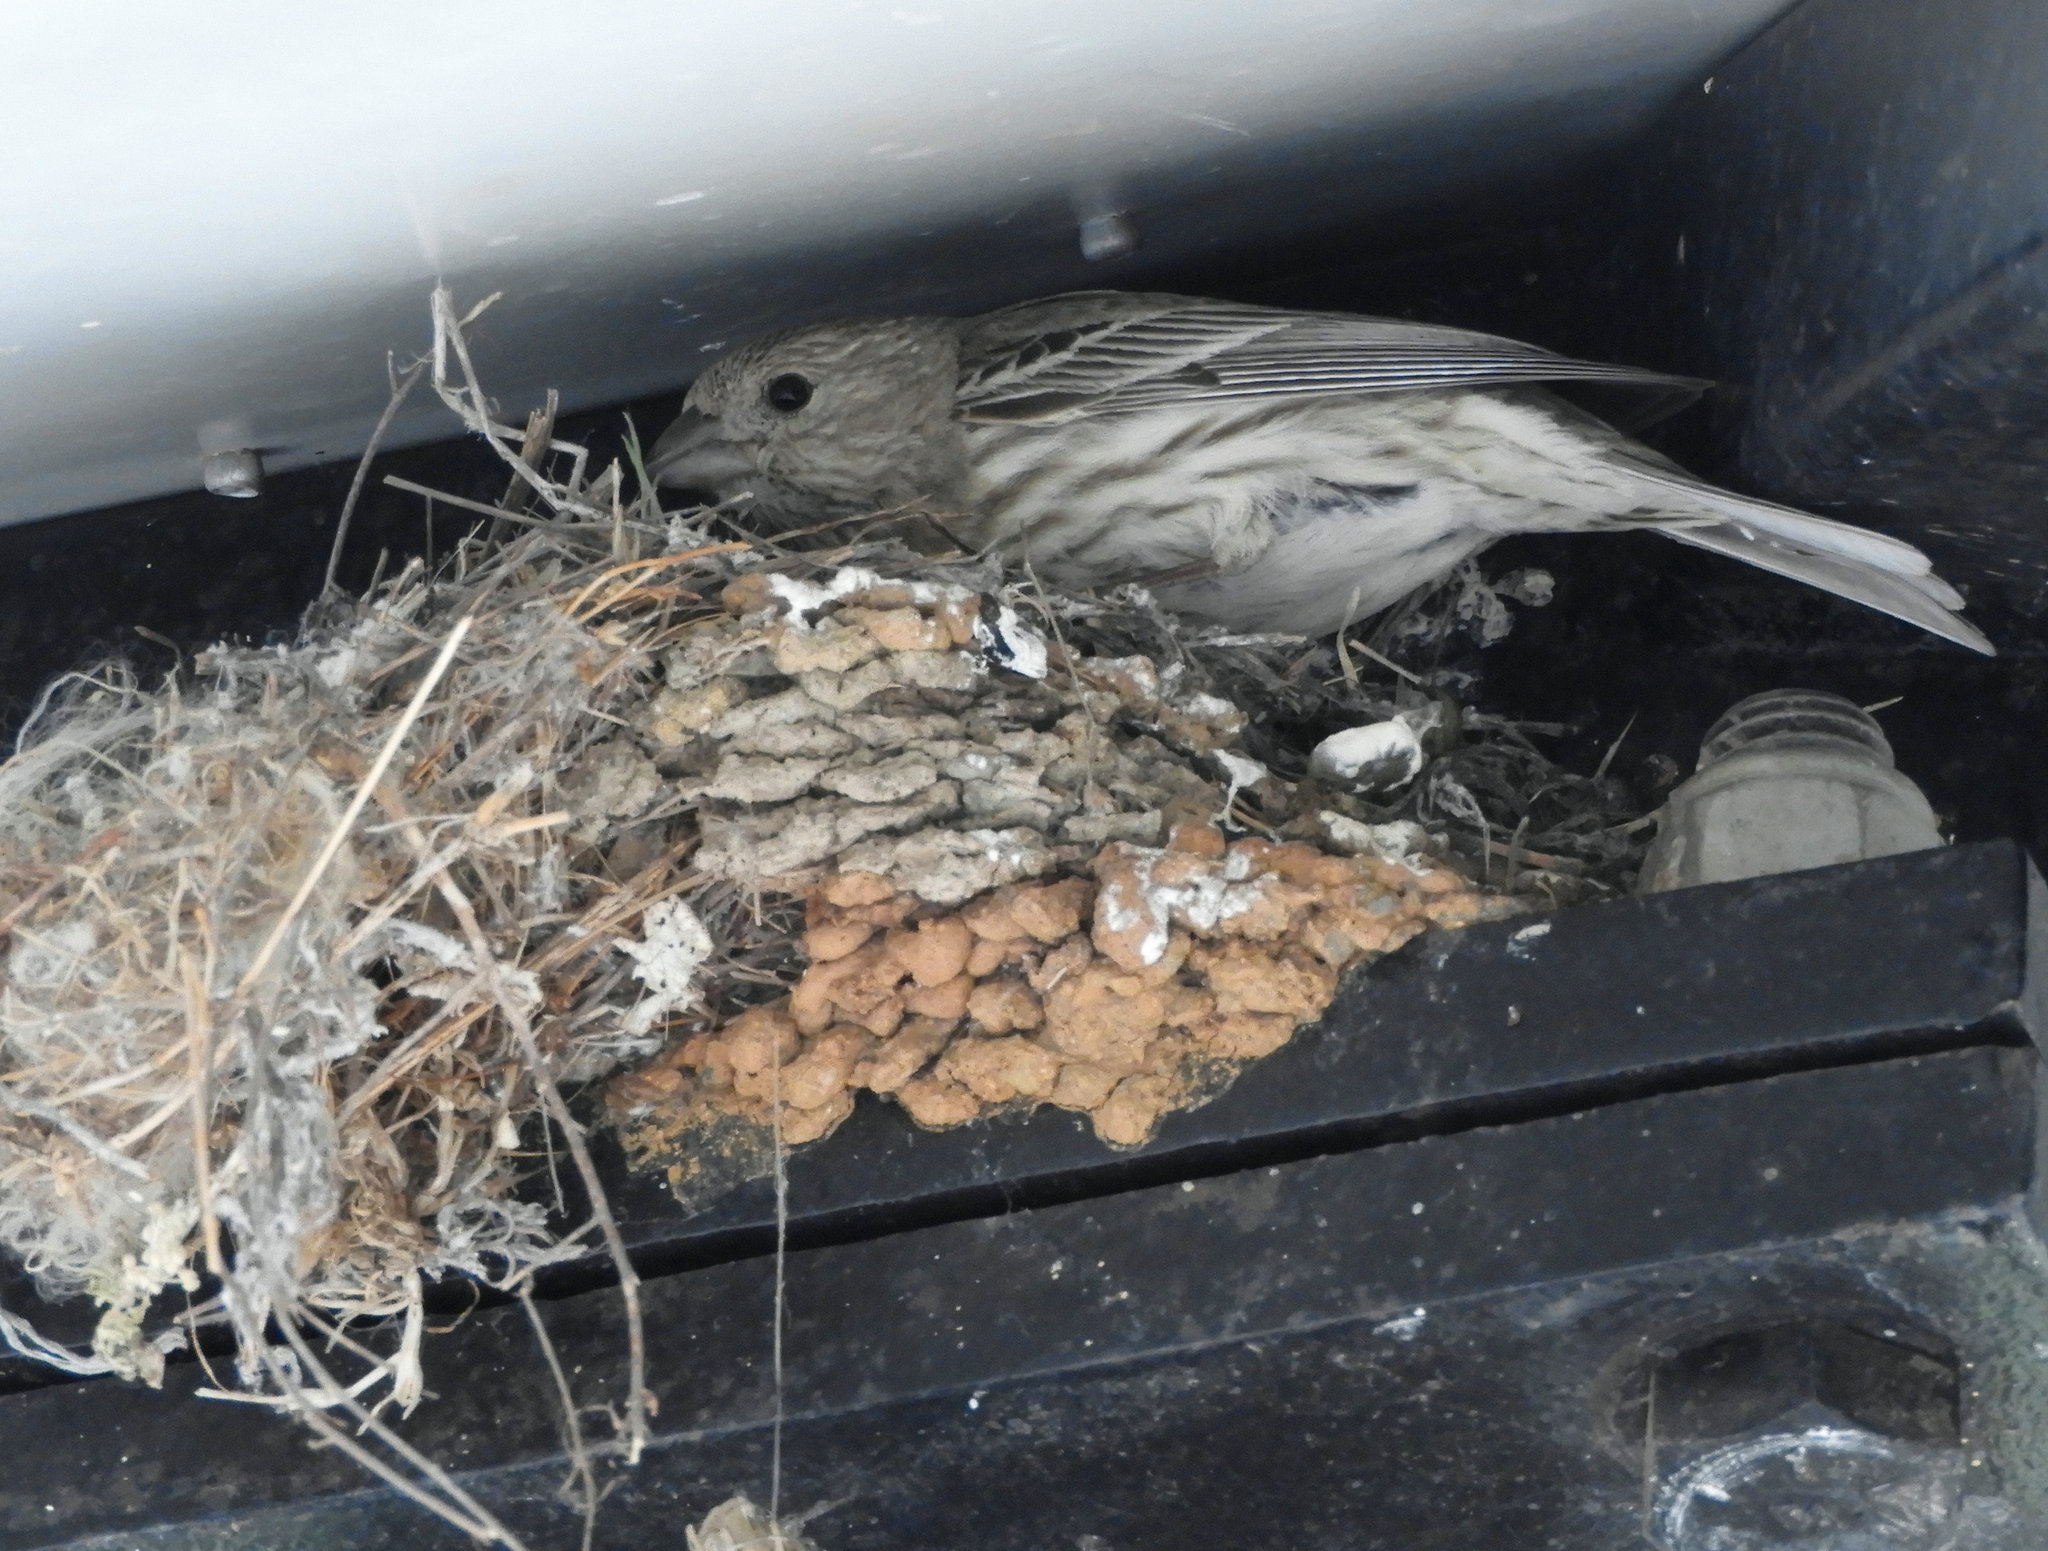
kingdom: Animalia
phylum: Chordata
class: Aves
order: Passeriformes
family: Fringillidae
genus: Haemorhous
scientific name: Haemorhous mexicanus
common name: House finch
